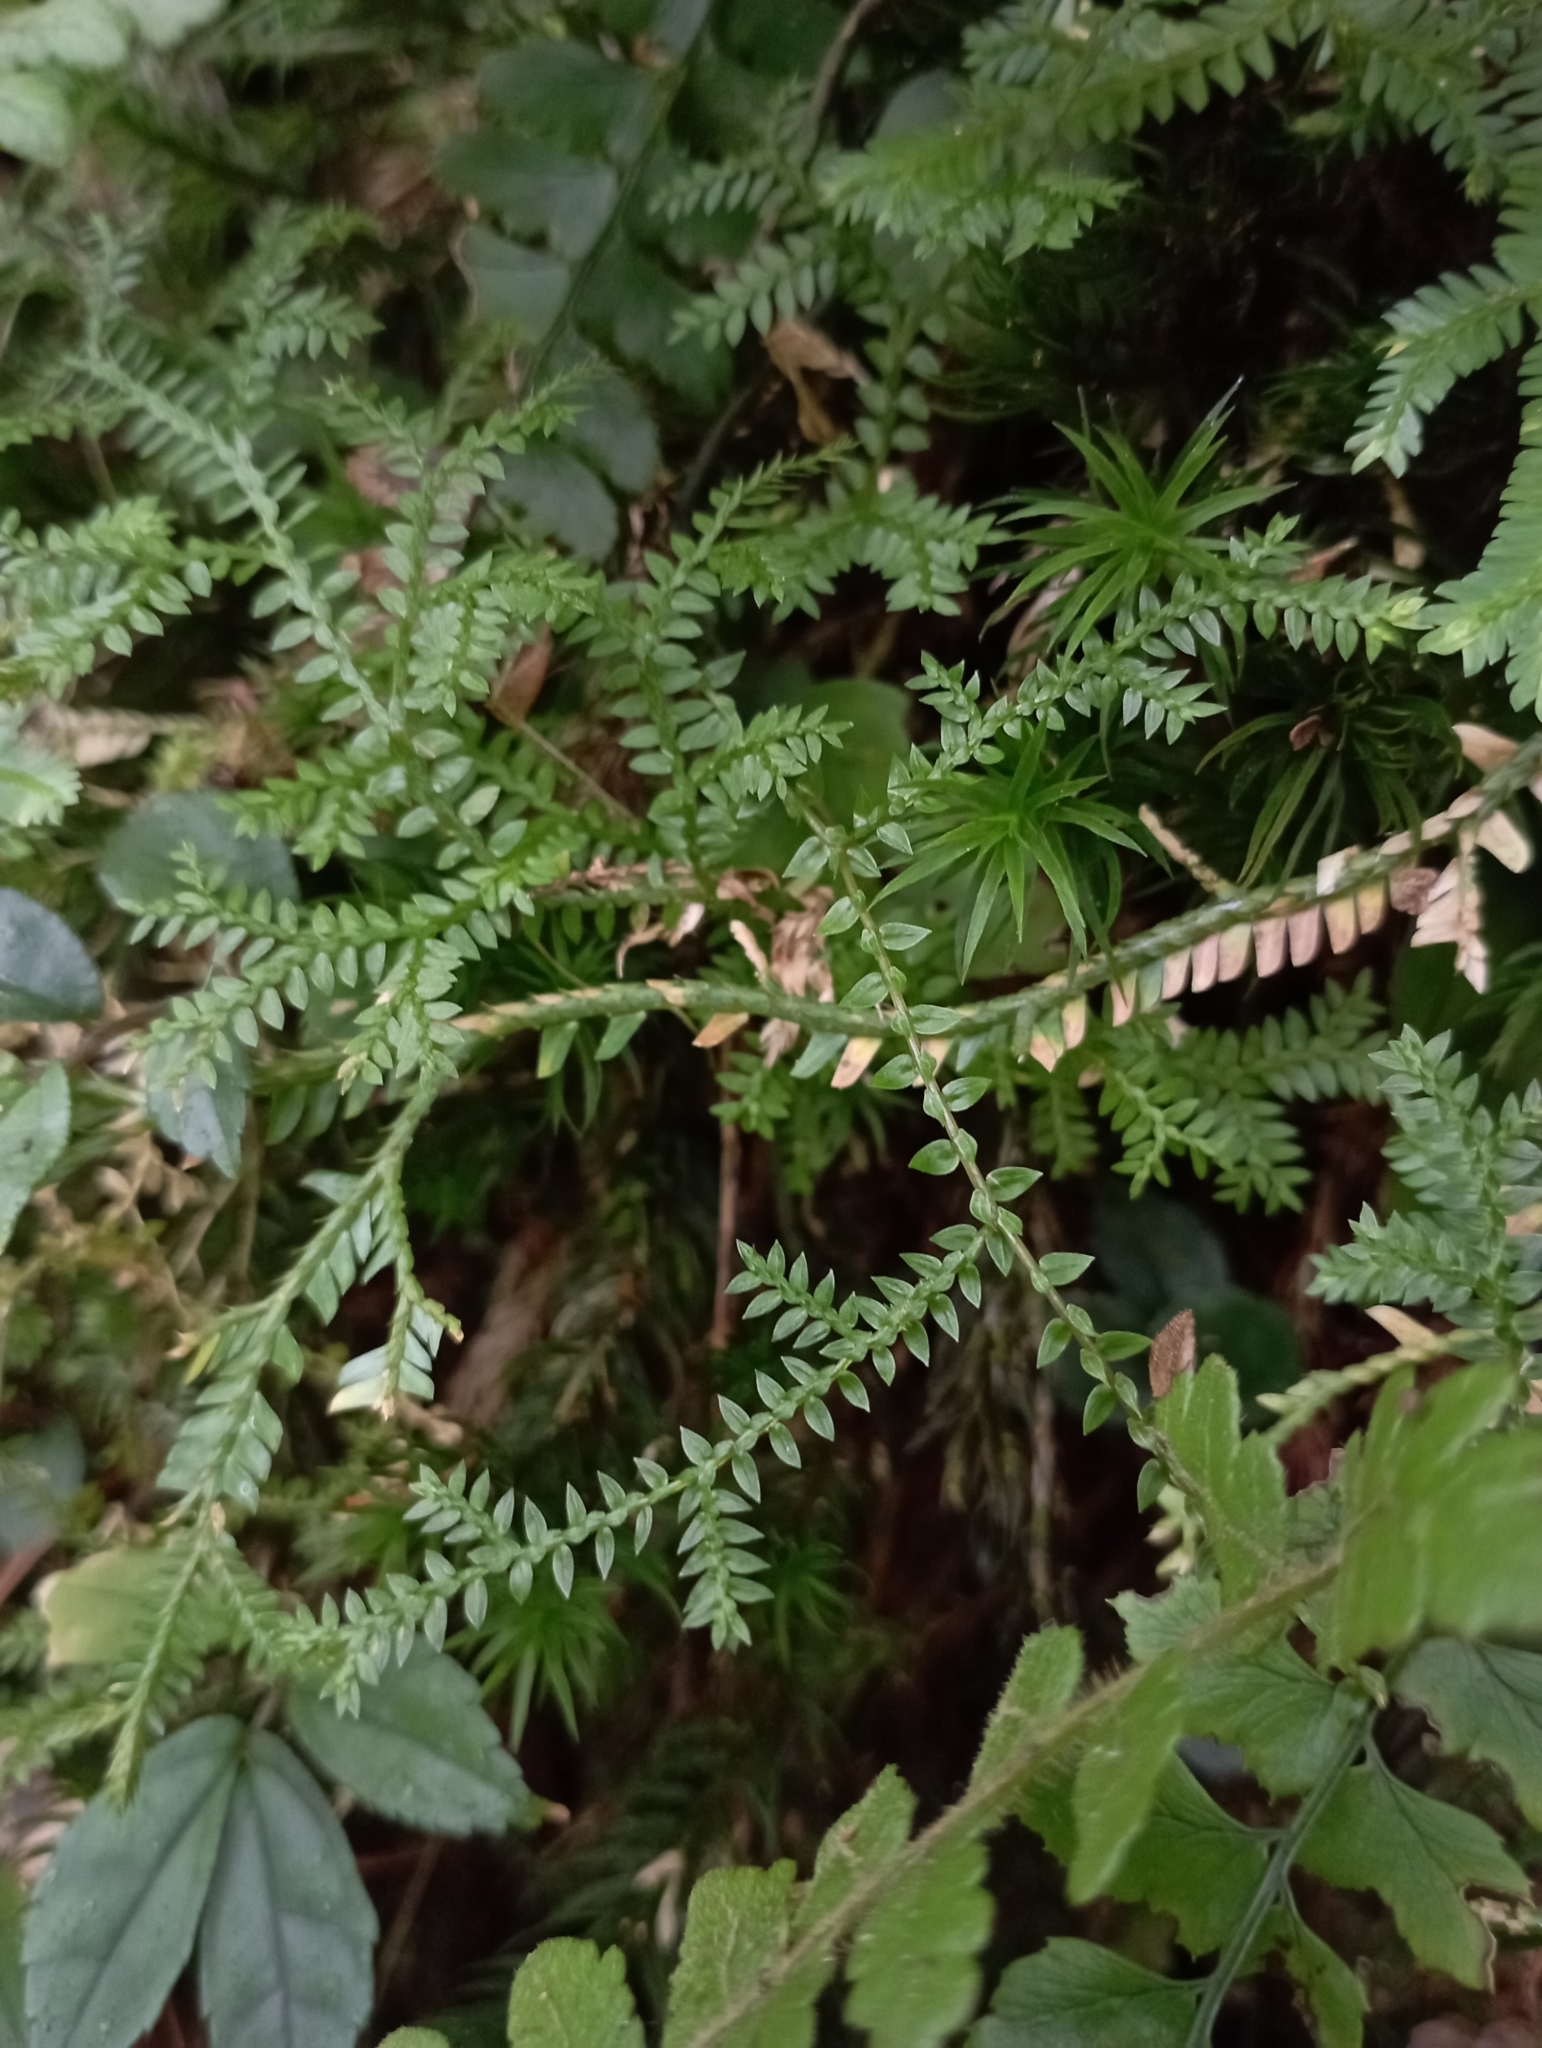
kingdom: Plantae
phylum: Tracheophyta
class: Lycopodiopsida
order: Selaginellales
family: Selaginellaceae
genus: Selaginella
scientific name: Selaginella remotifolia
